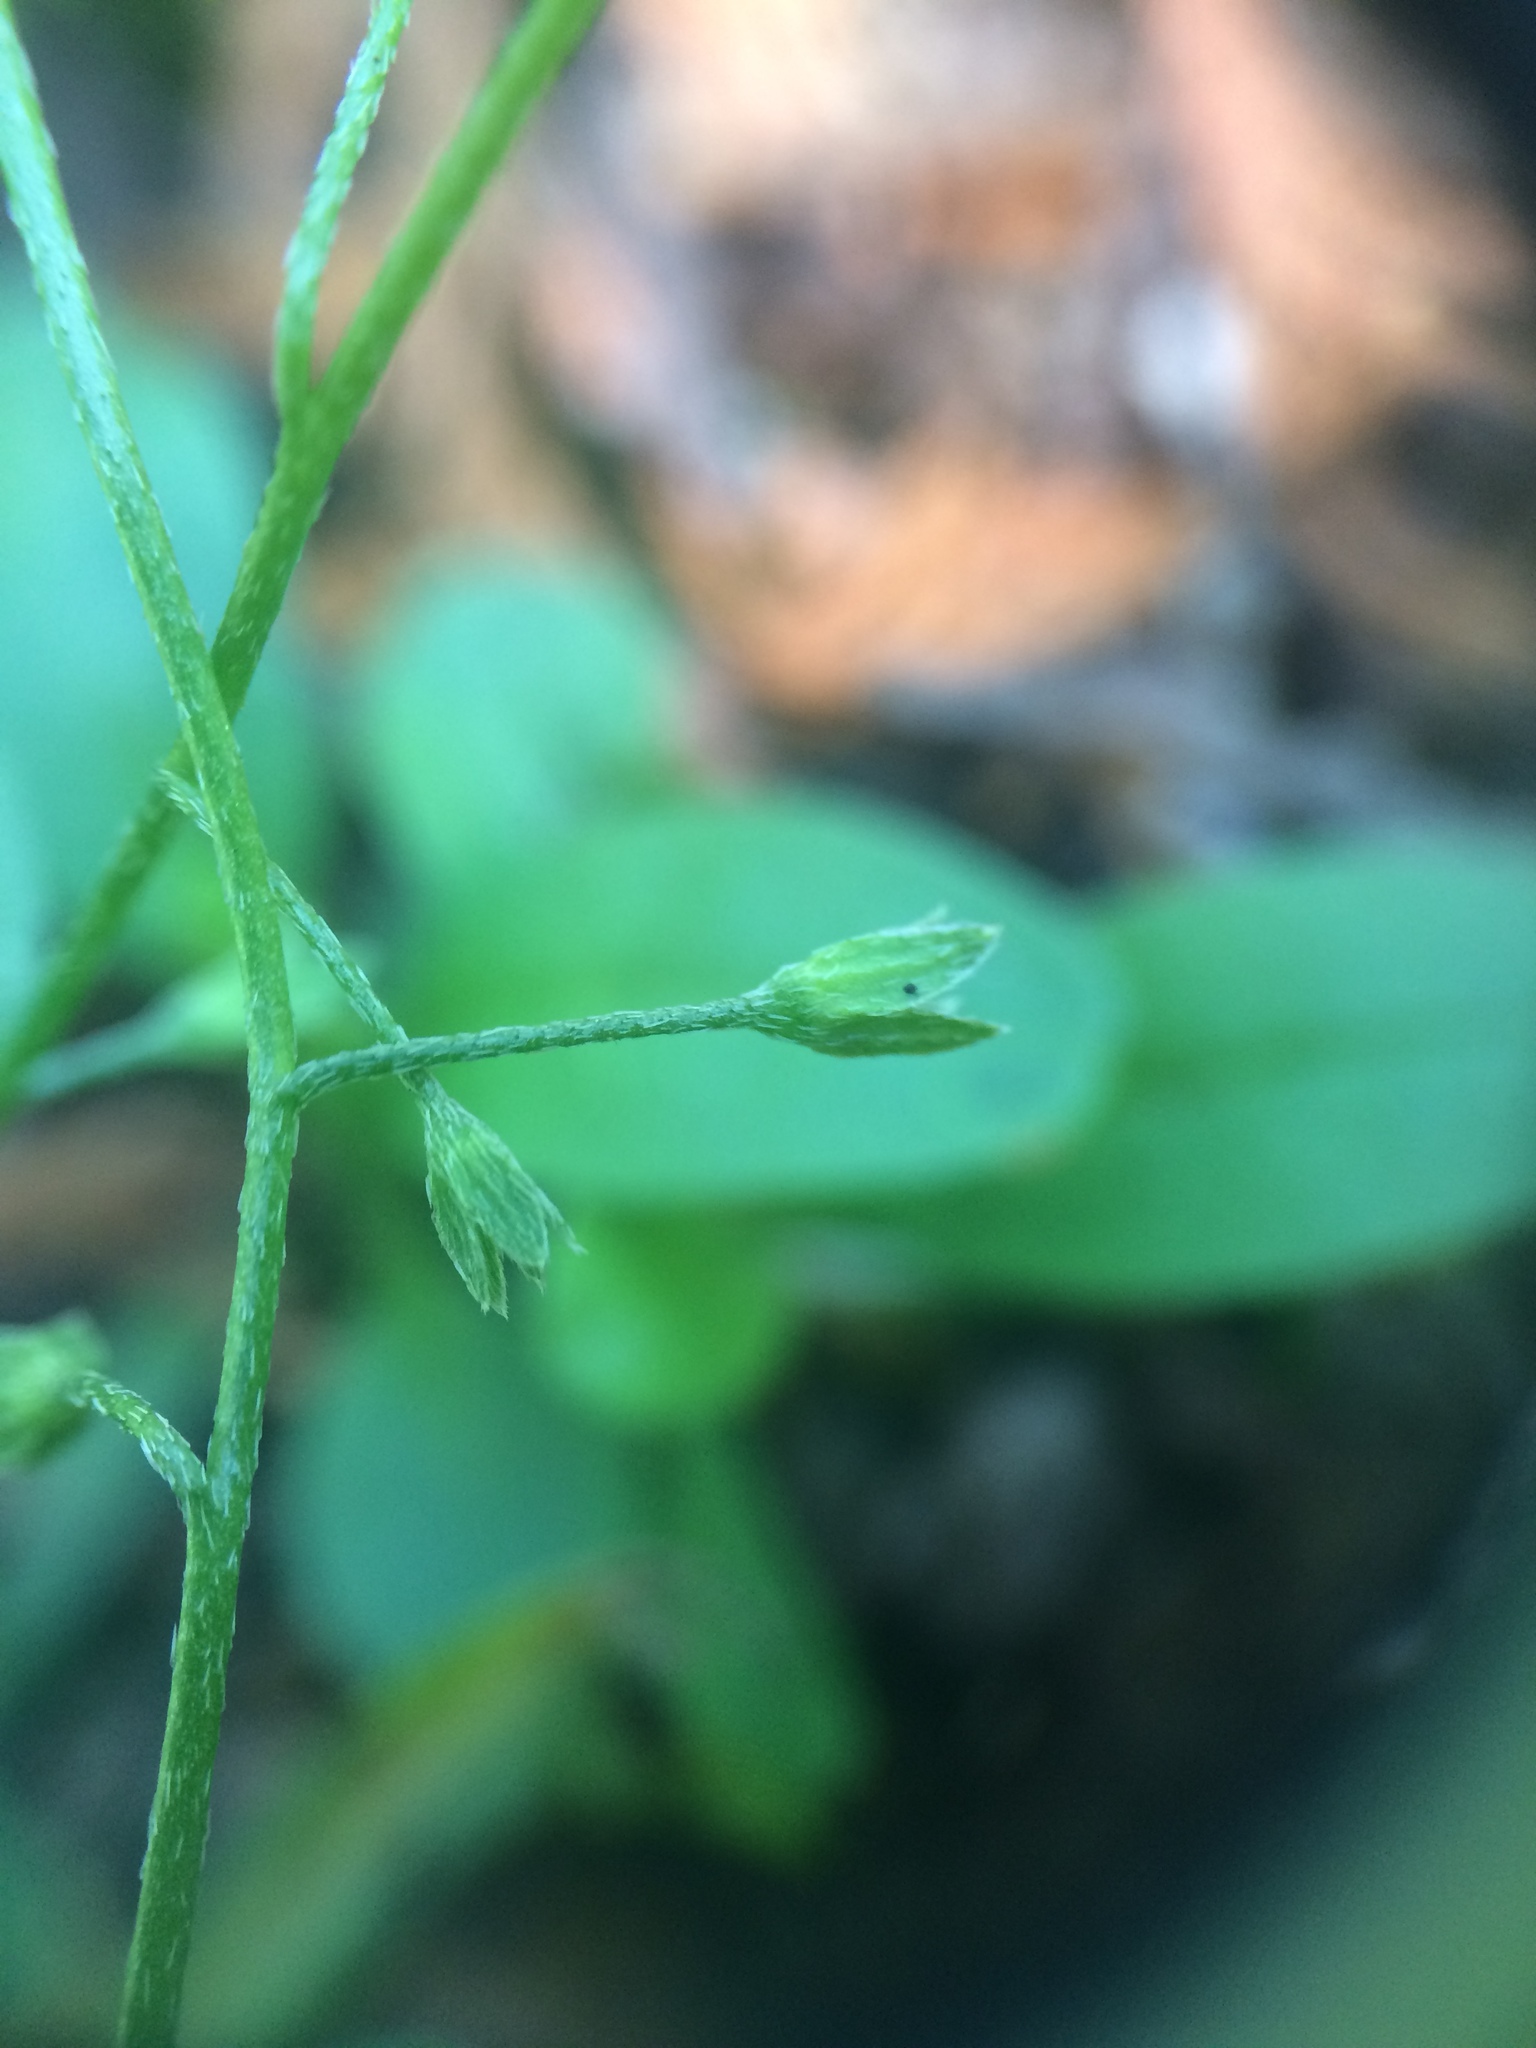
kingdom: Plantae
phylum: Tracheophyta
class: Magnoliopsida
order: Boraginales
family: Boraginaceae
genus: Myosotis
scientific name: Myosotis laxa
